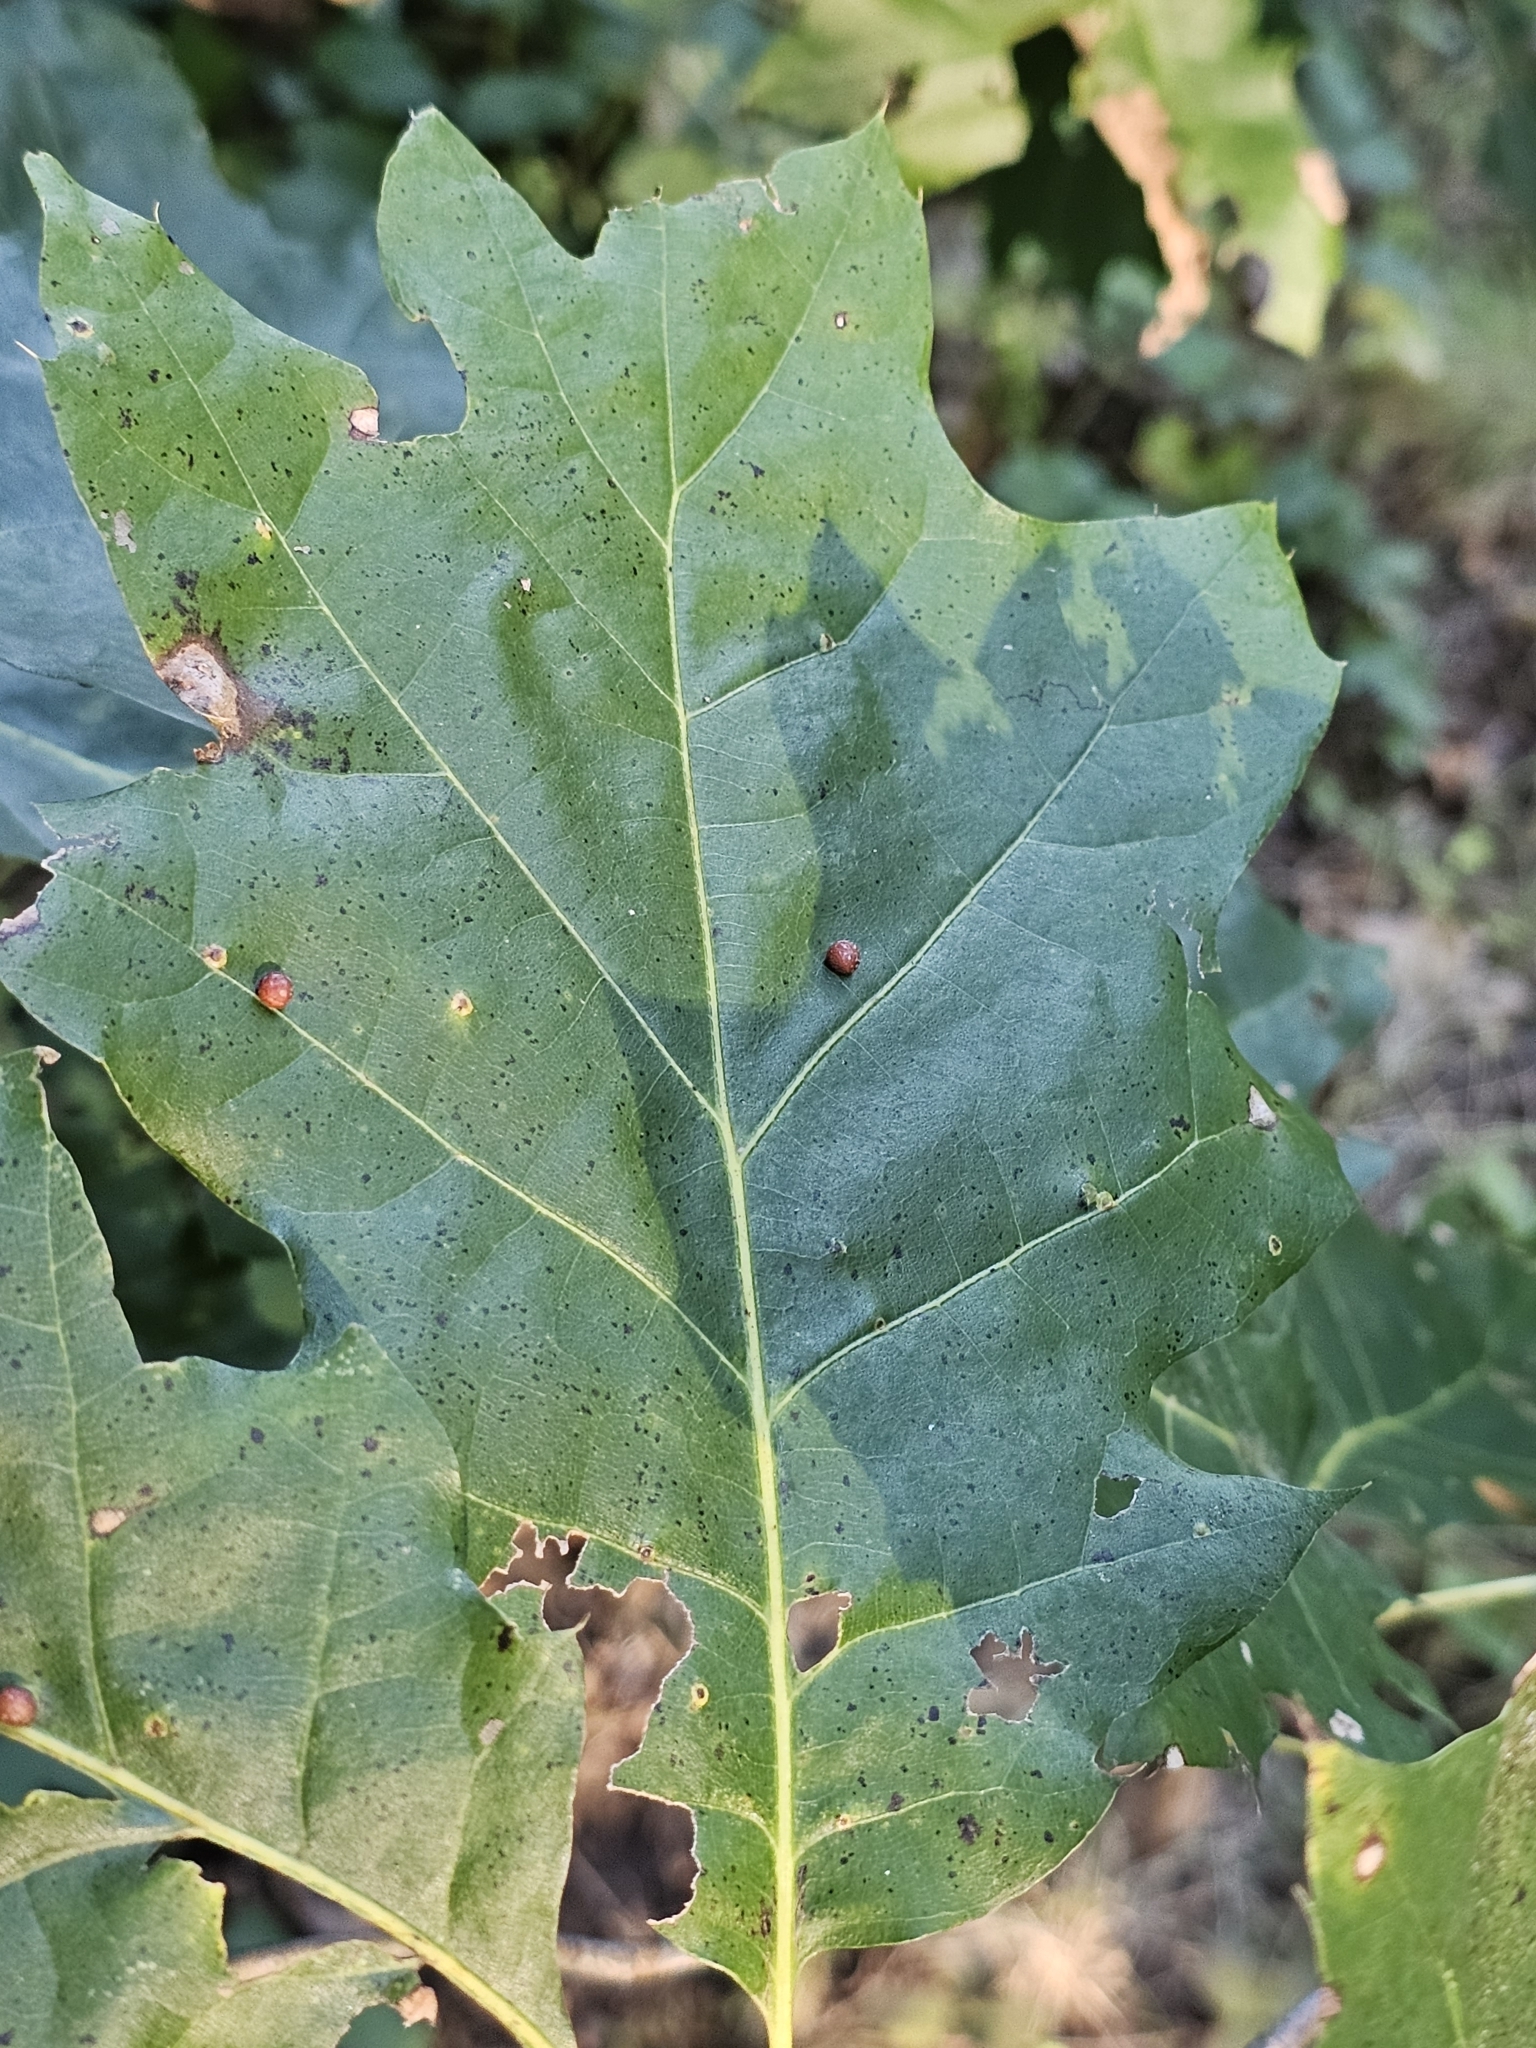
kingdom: Animalia
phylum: Arthropoda
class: Insecta
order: Diptera
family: Cecidomyiidae
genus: Polystepha
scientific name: Polystepha pilulae
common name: Oak leaf gall midge
